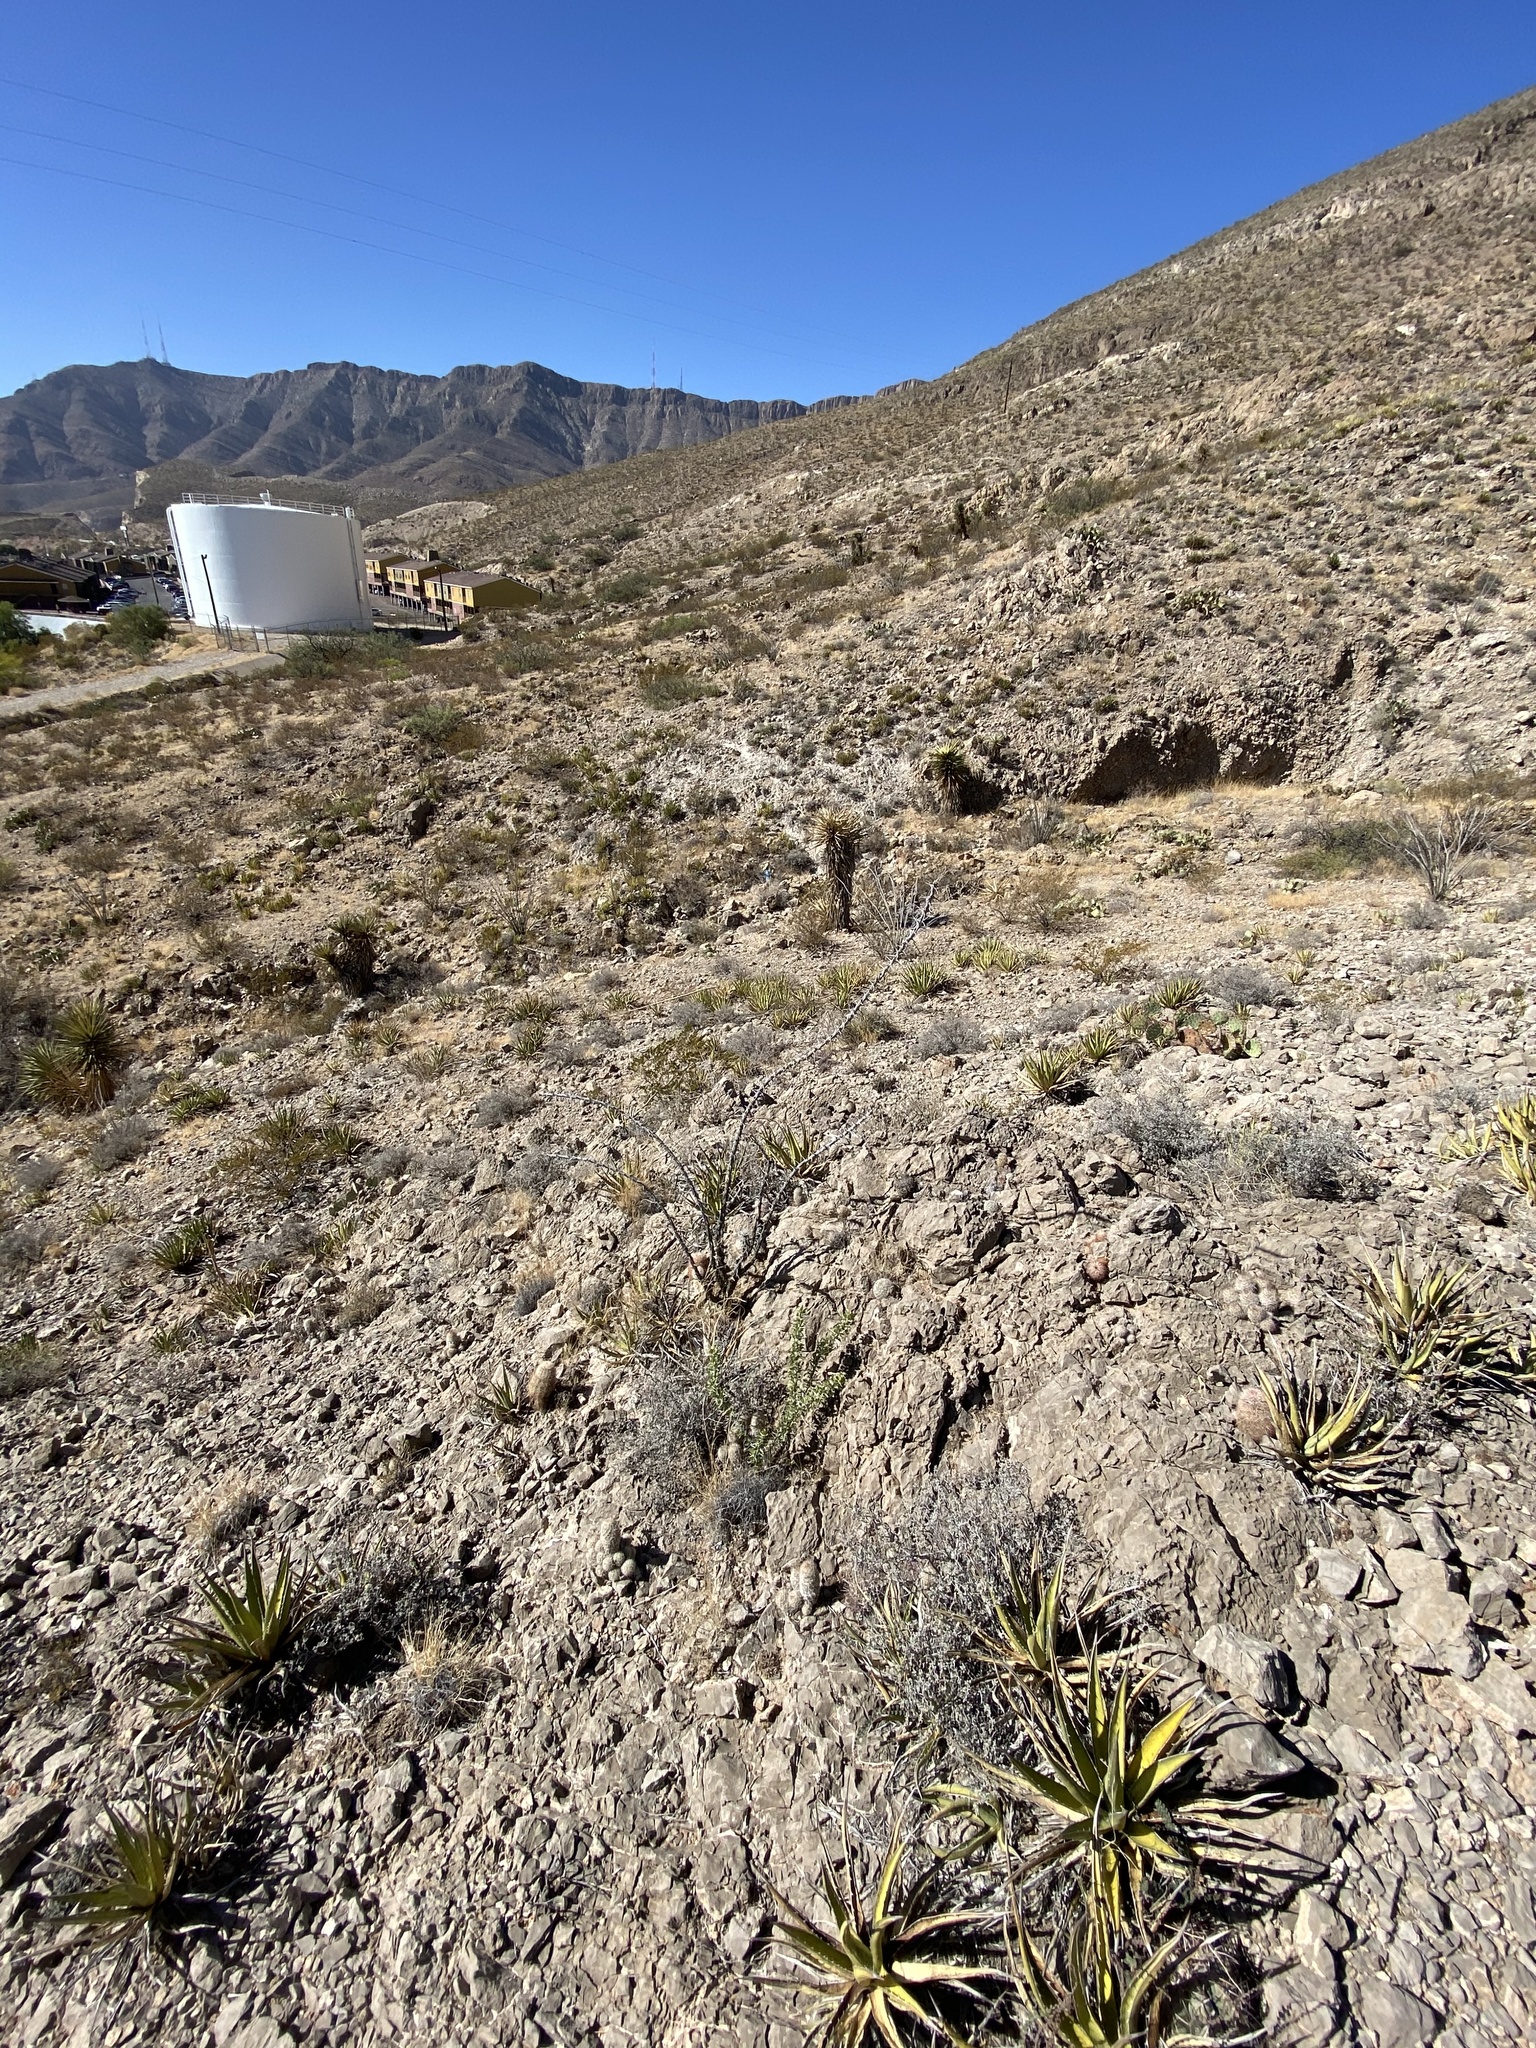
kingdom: Plantae
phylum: Tracheophyta
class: Magnoliopsida
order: Ericales
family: Fouquieriaceae
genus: Fouquieria
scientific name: Fouquieria splendens
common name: Vine-cactus
